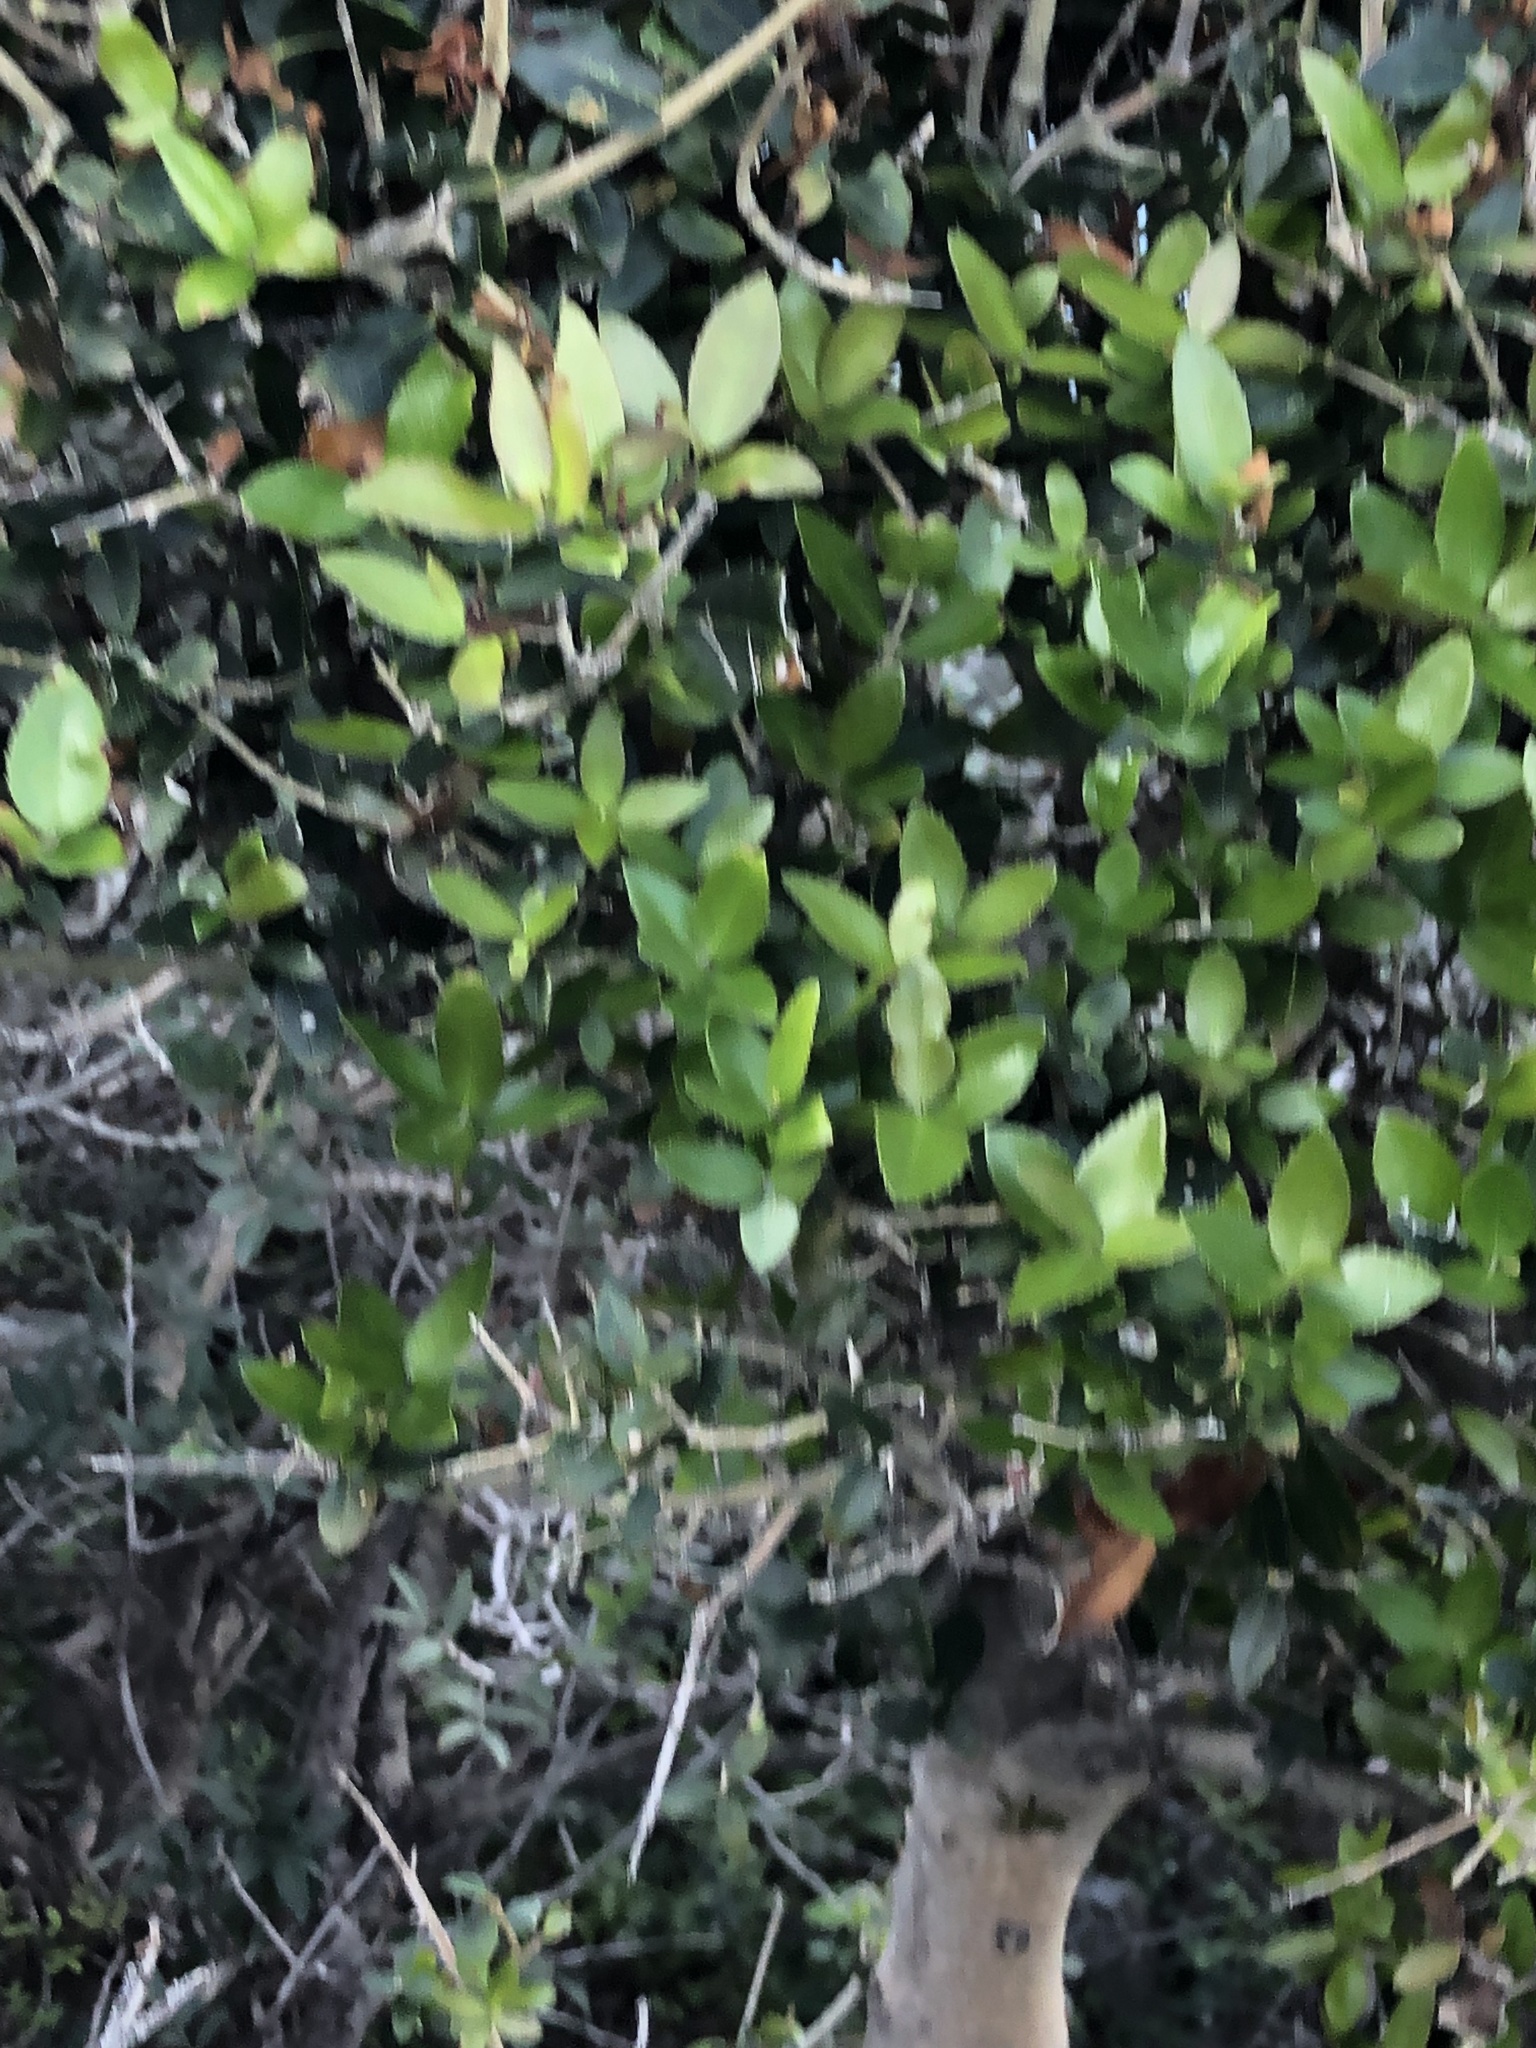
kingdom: Plantae
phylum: Tracheophyta
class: Magnoliopsida
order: Lamiales
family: Oleaceae
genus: Phillyrea
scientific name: Phillyrea latifolia
